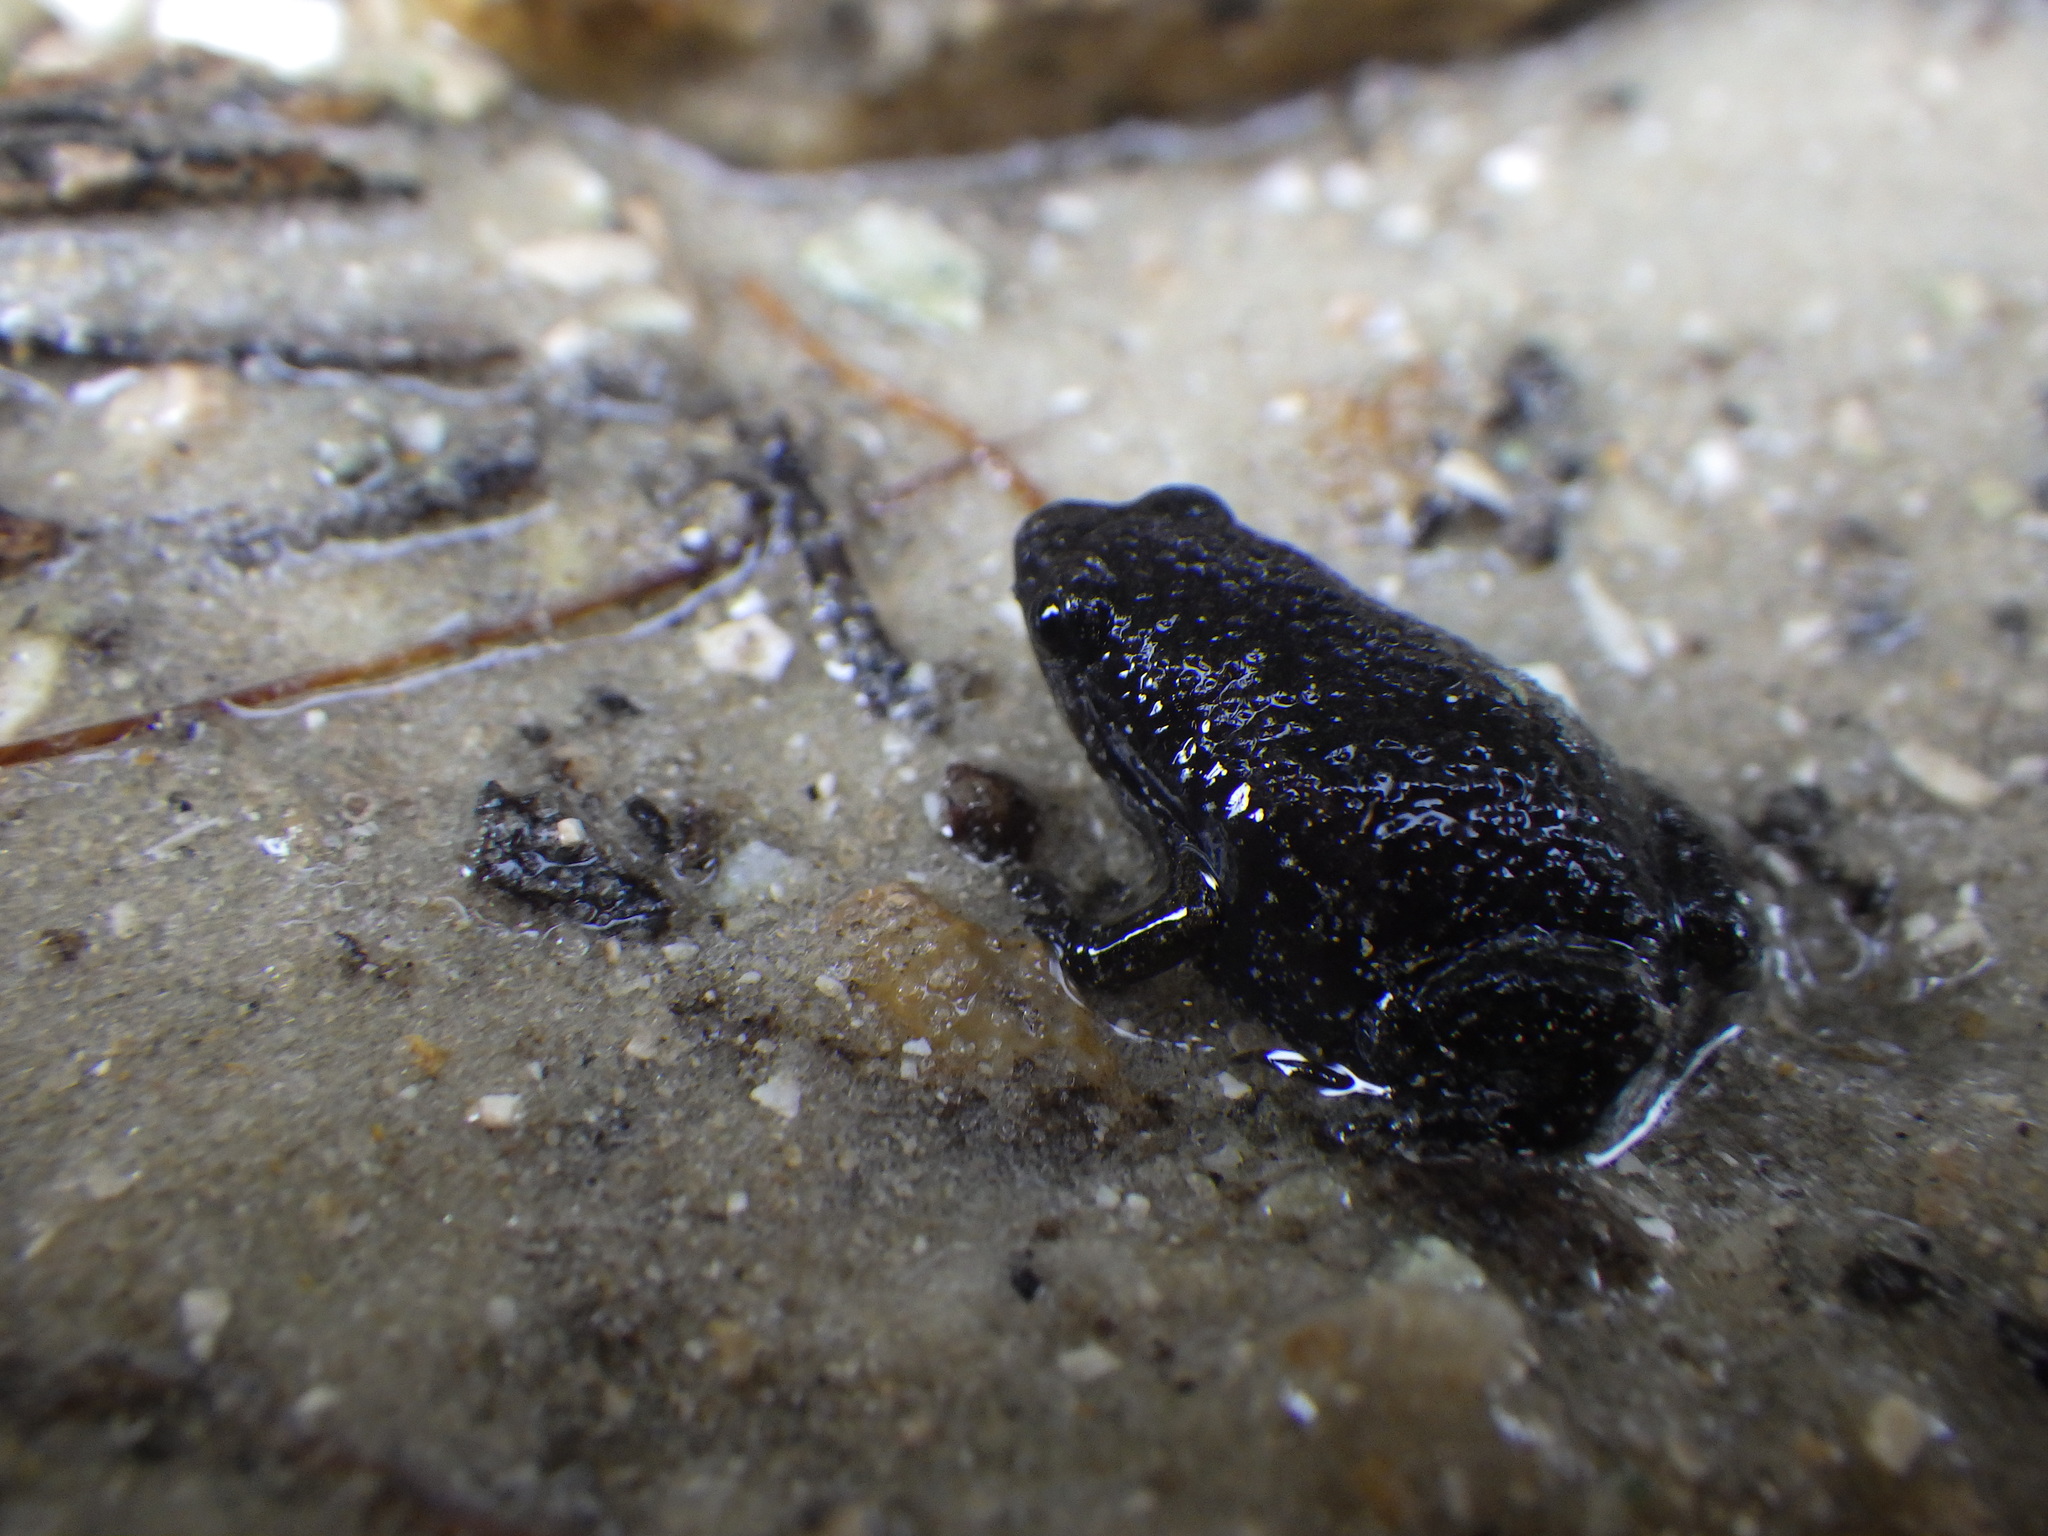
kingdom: Animalia
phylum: Chordata
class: Amphibia
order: Anura
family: Microhylidae
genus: Gastrophryne
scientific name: Gastrophryne carolinensis
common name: Eastern narrowmouth toad
